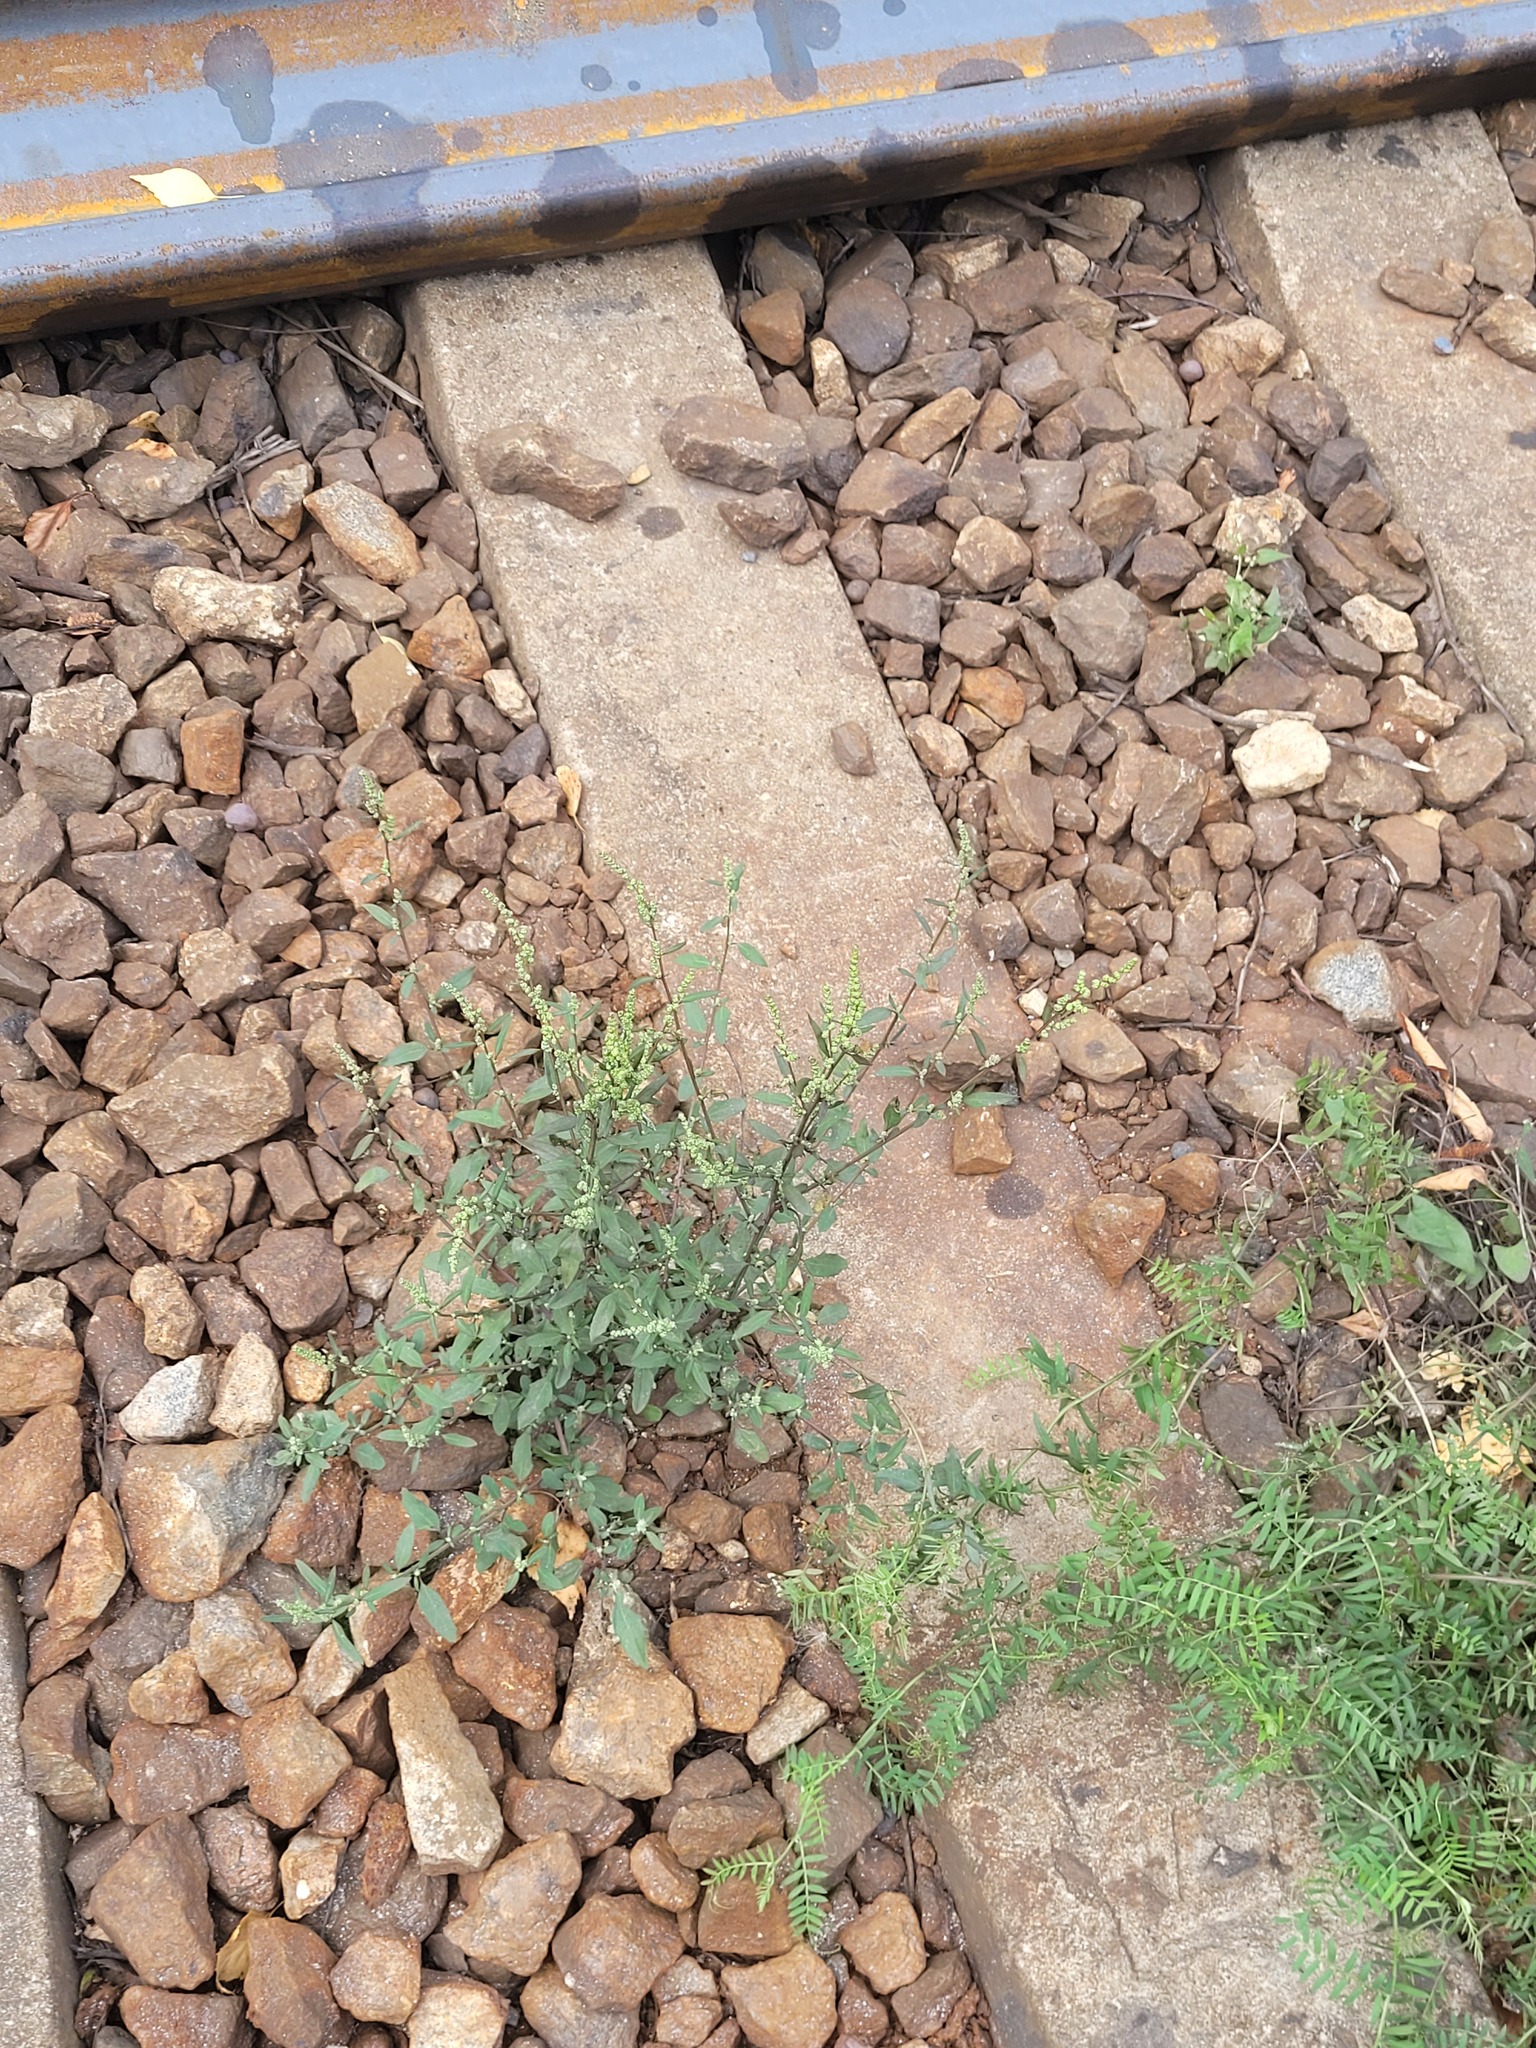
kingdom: Plantae
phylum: Tracheophyta
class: Magnoliopsida
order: Caryophyllales
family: Amaranthaceae
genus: Chenopodium
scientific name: Chenopodium betaceum
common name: Striped goosefoot
